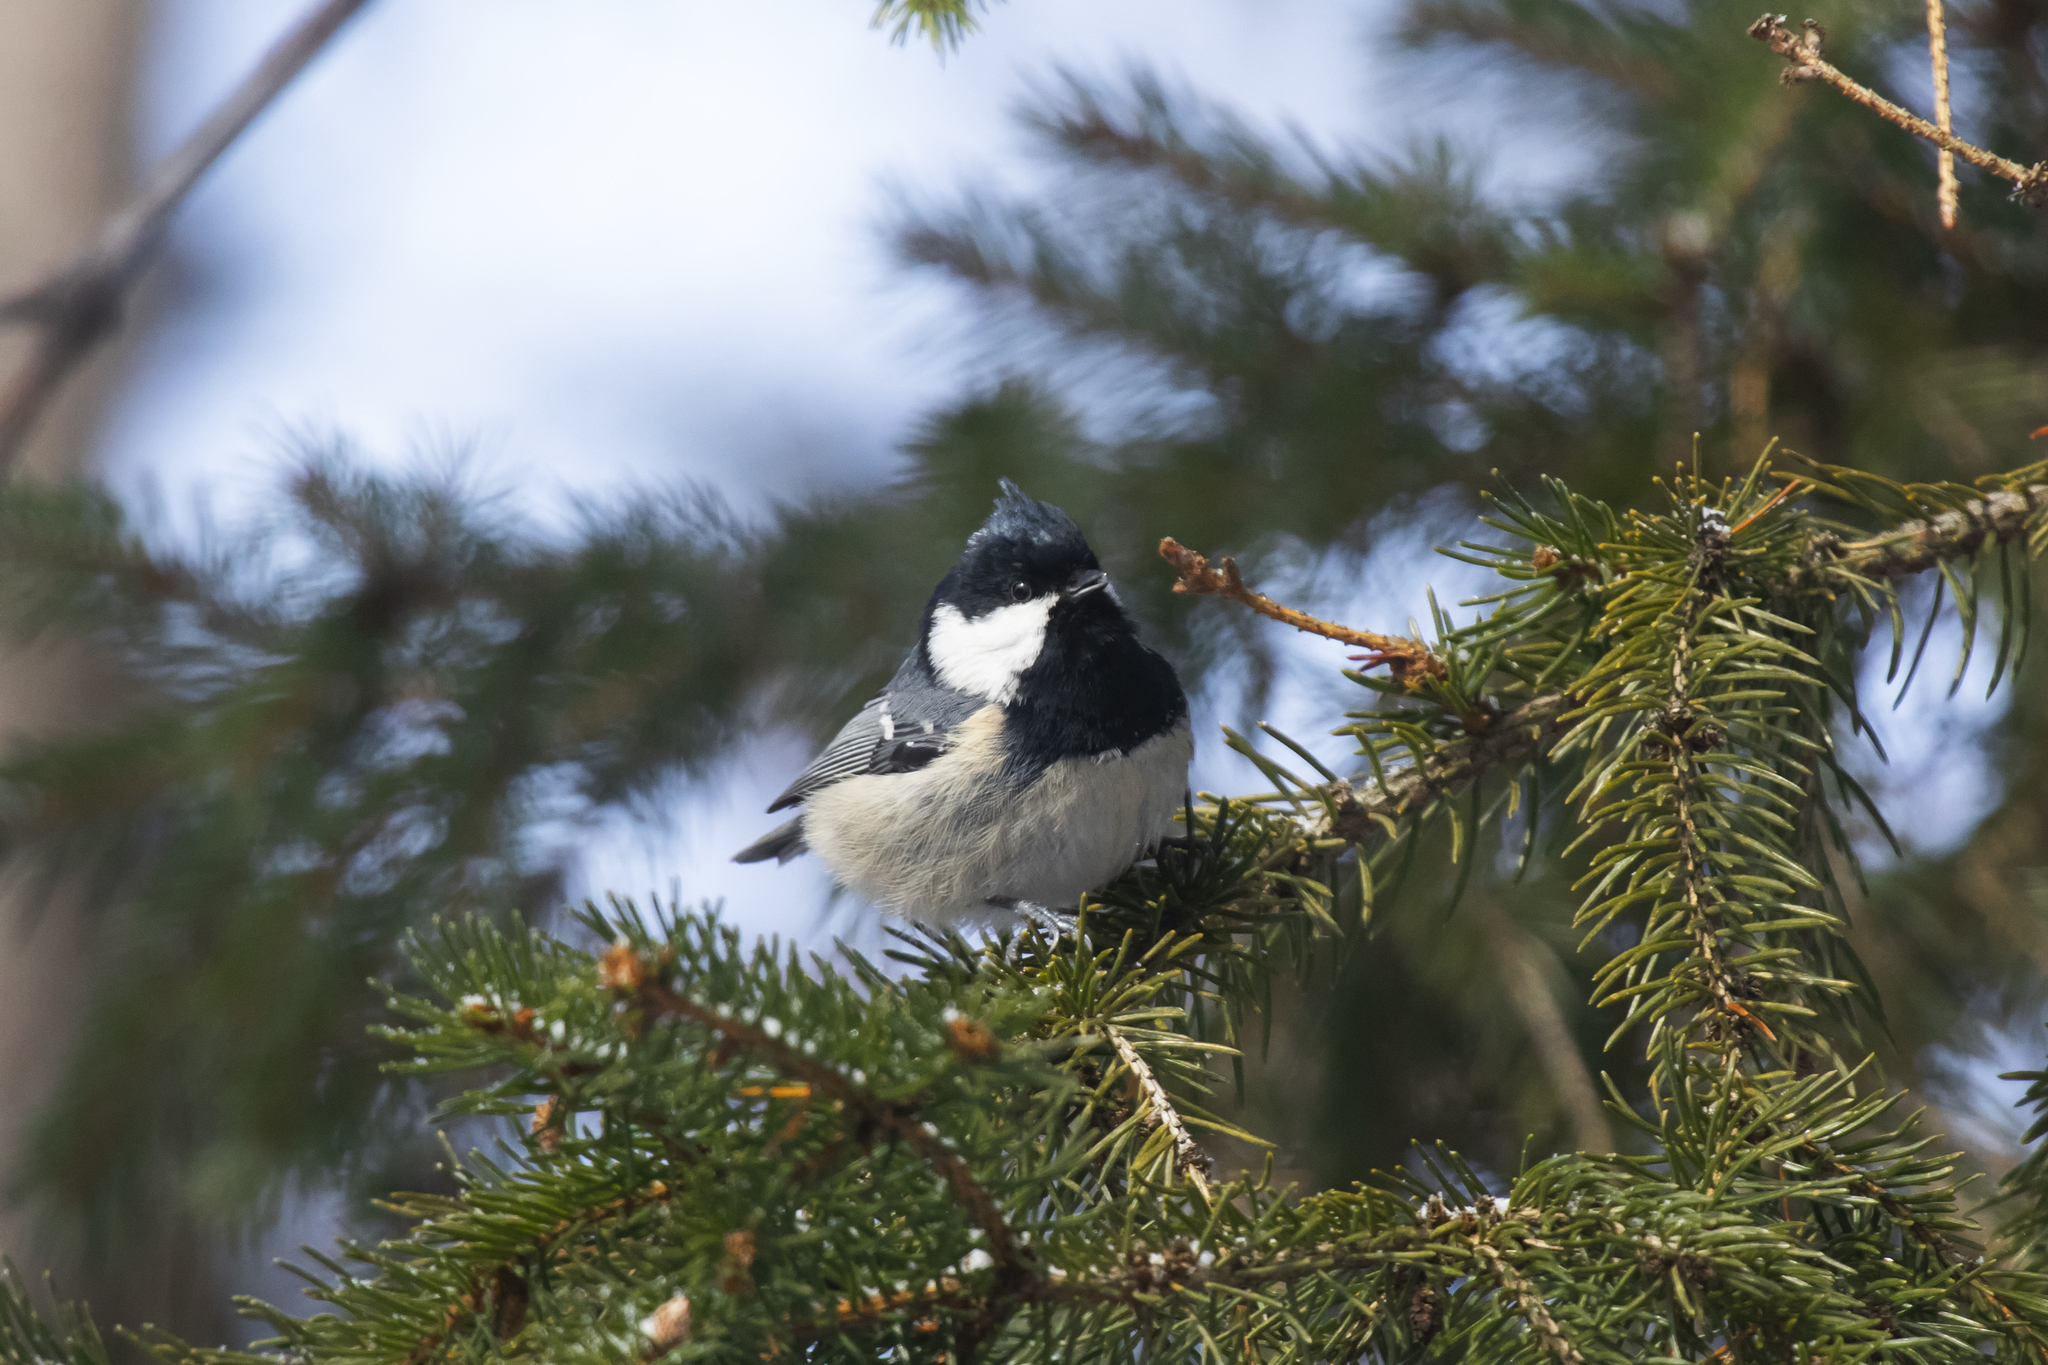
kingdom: Animalia
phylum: Chordata
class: Aves
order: Passeriformes
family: Paridae
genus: Periparus
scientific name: Periparus ater
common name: Coal tit
